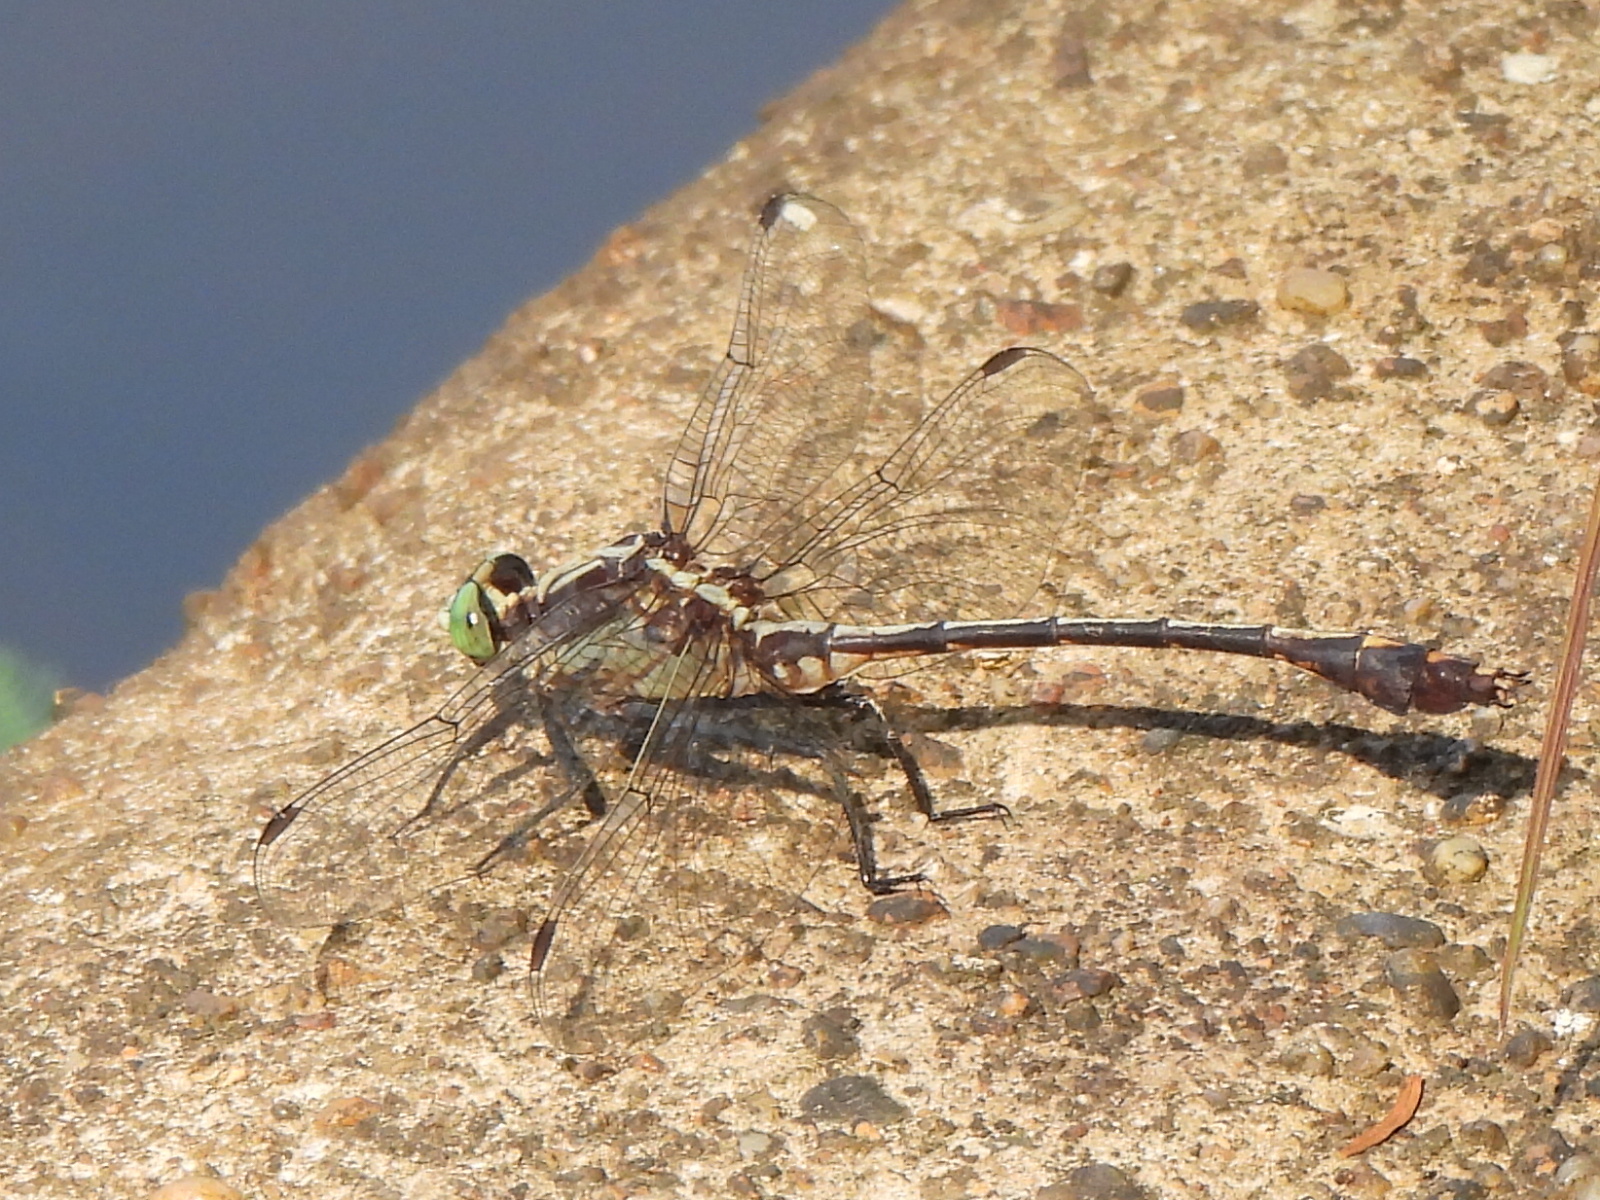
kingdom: Animalia
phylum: Arthropoda
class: Insecta
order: Odonata
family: Gomphidae
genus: Dromogomphus
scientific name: Dromogomphus spinosus
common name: Black-shouldered spinyleg
